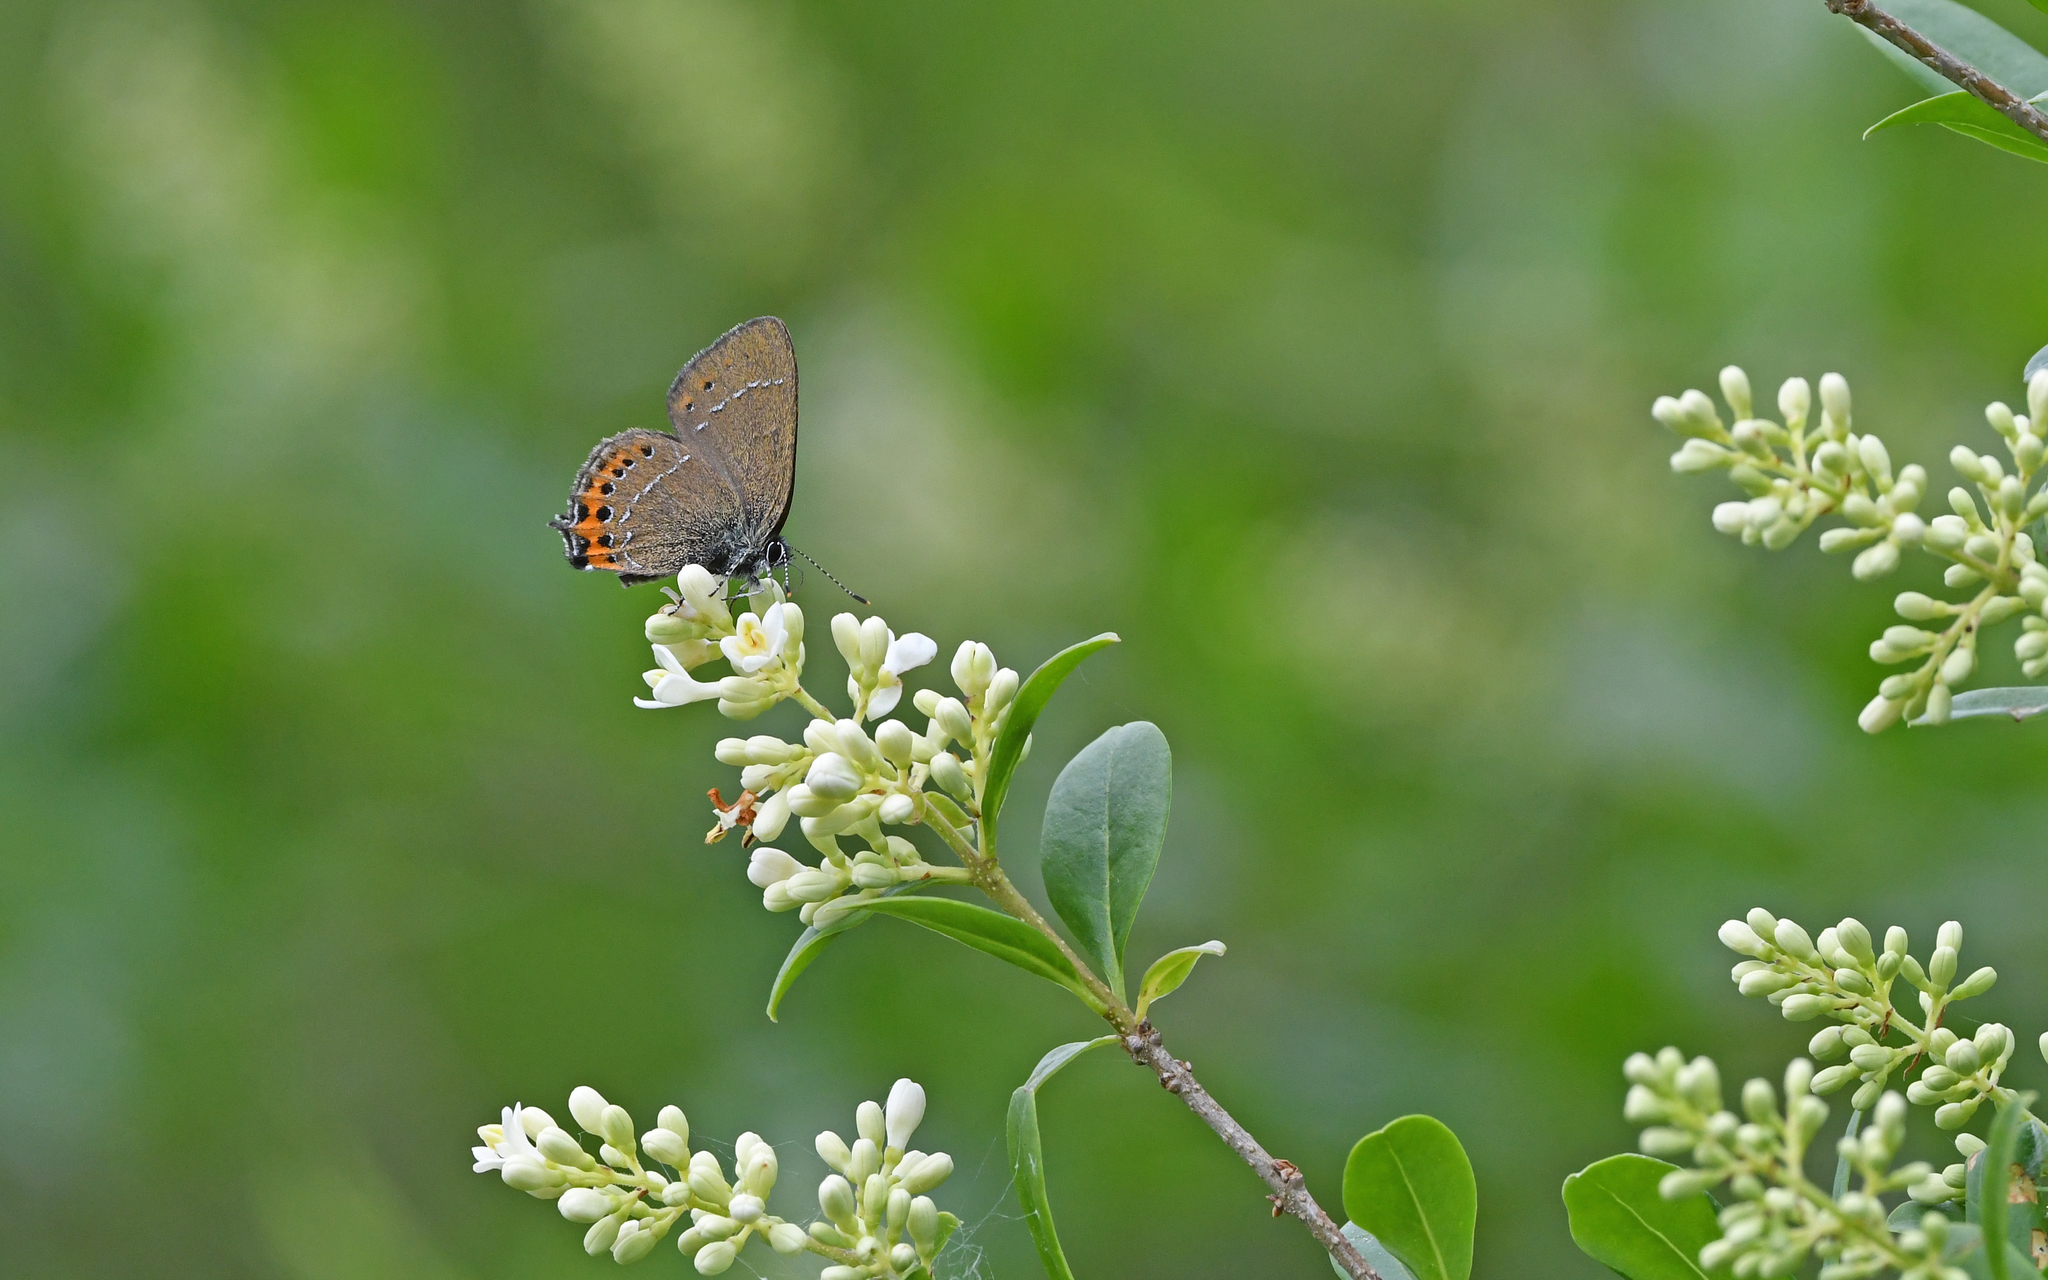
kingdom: Animalia
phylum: Arthropoda
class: Insecta
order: Lepidoptera
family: Lycaenidae
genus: Fixsenia
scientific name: Fixsenia pruni
